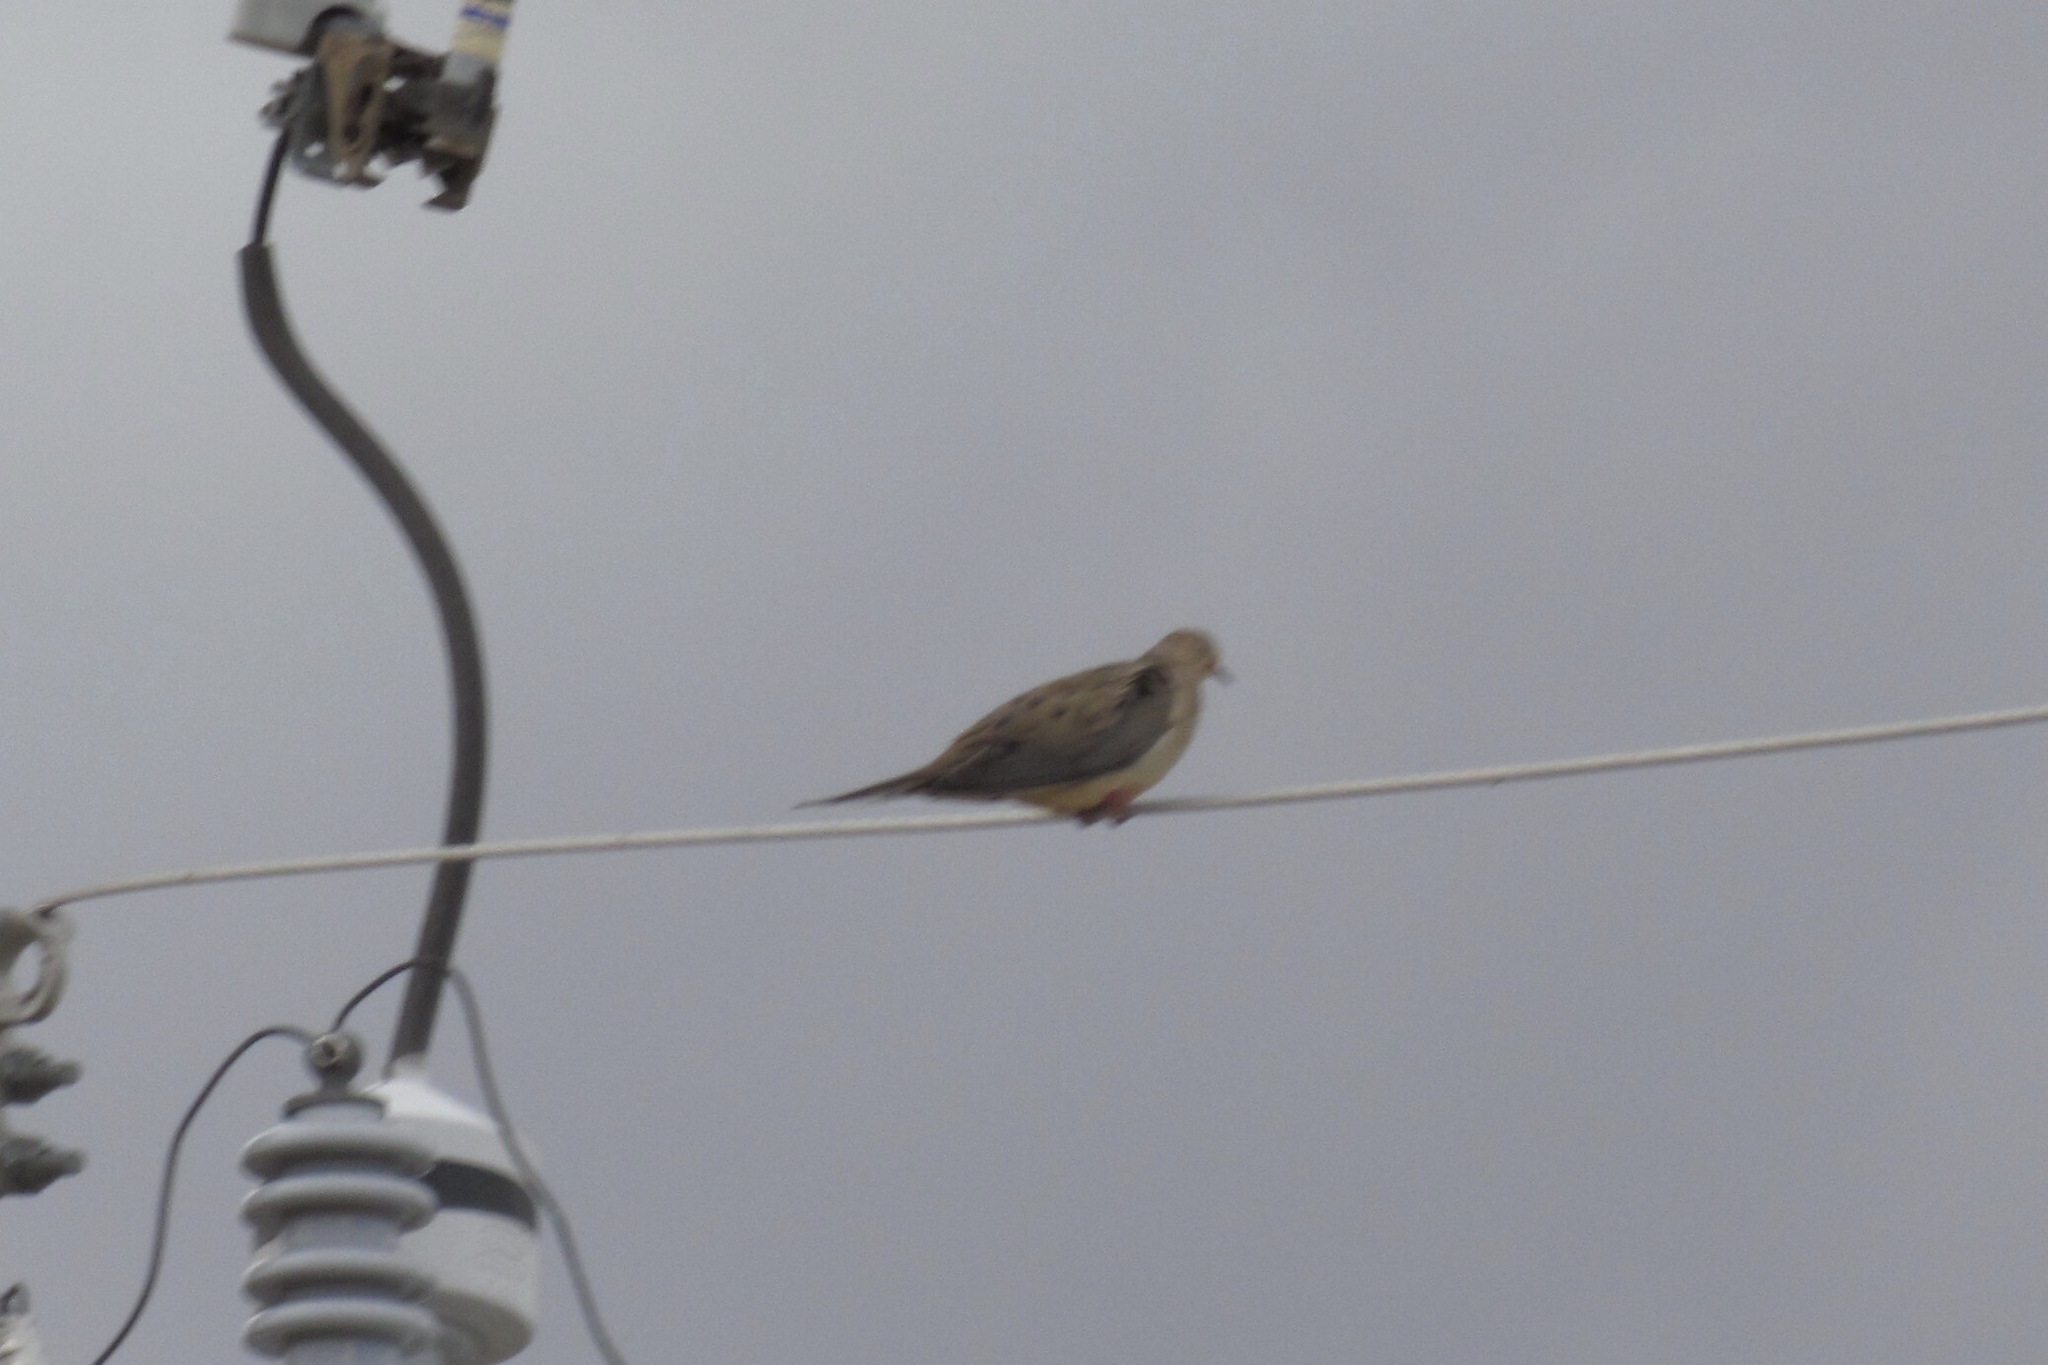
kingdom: Animalia
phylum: Chordata
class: Aves
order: Columbiformes
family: Columbidae
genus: Zenaida
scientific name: Zenaida macroura
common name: Mourning dove
